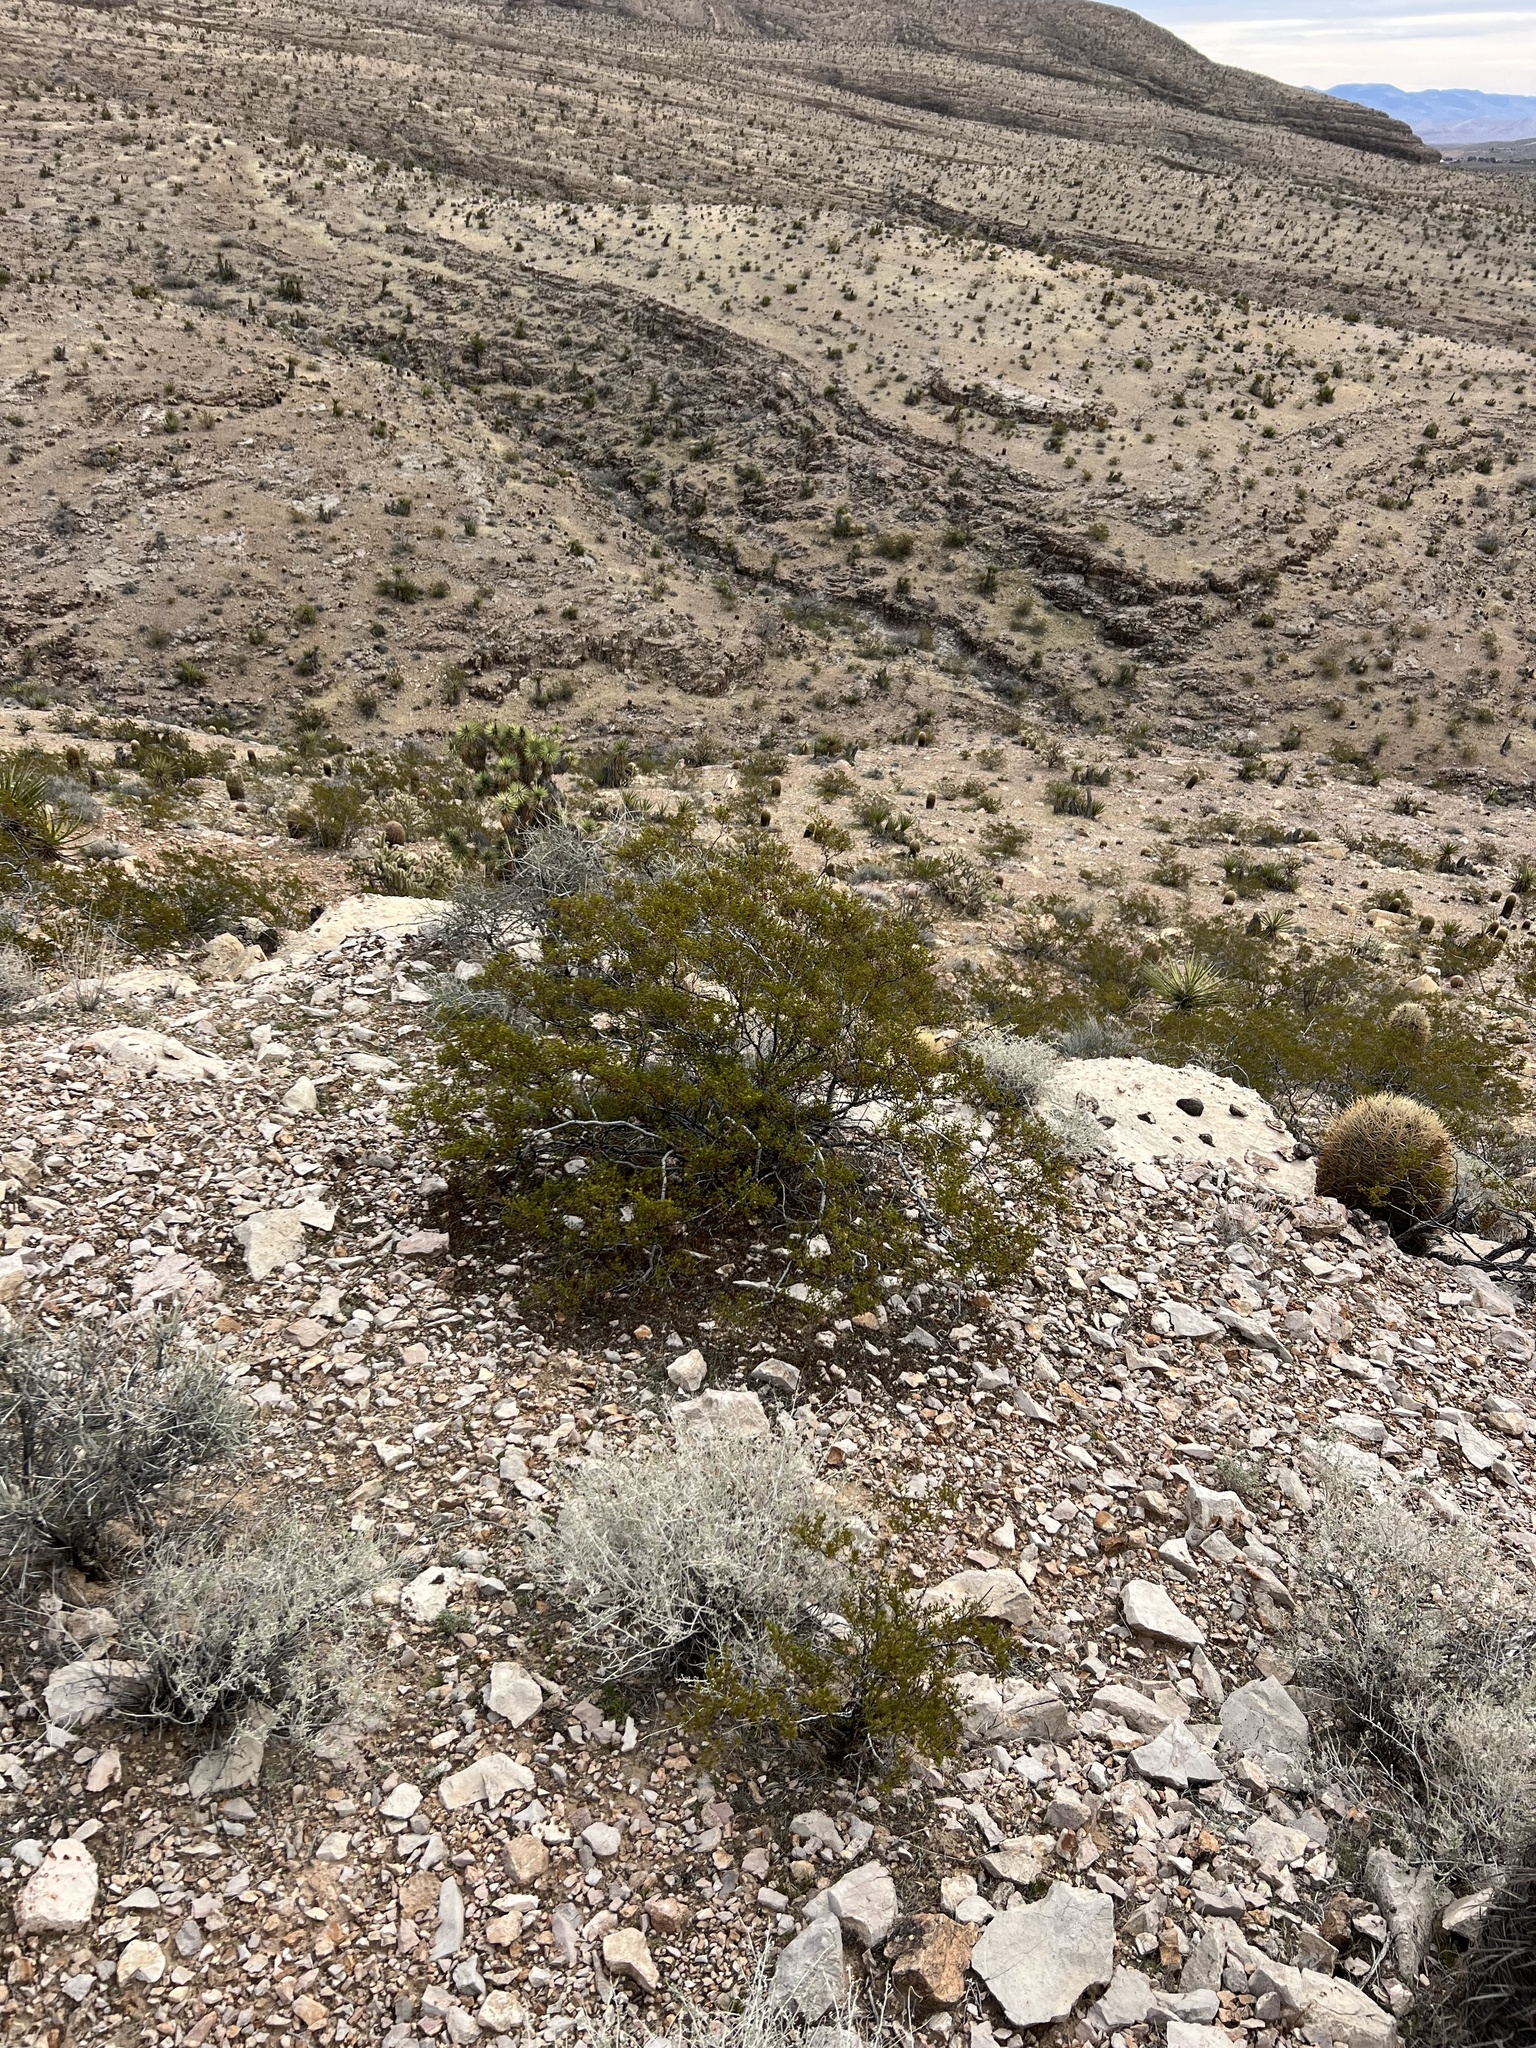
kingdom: Plantae
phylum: Tracheophyta
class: Magnoliopsida
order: Zygophyllales
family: Zygophyllaceae
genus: Larrea
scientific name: Larrea tridentata
